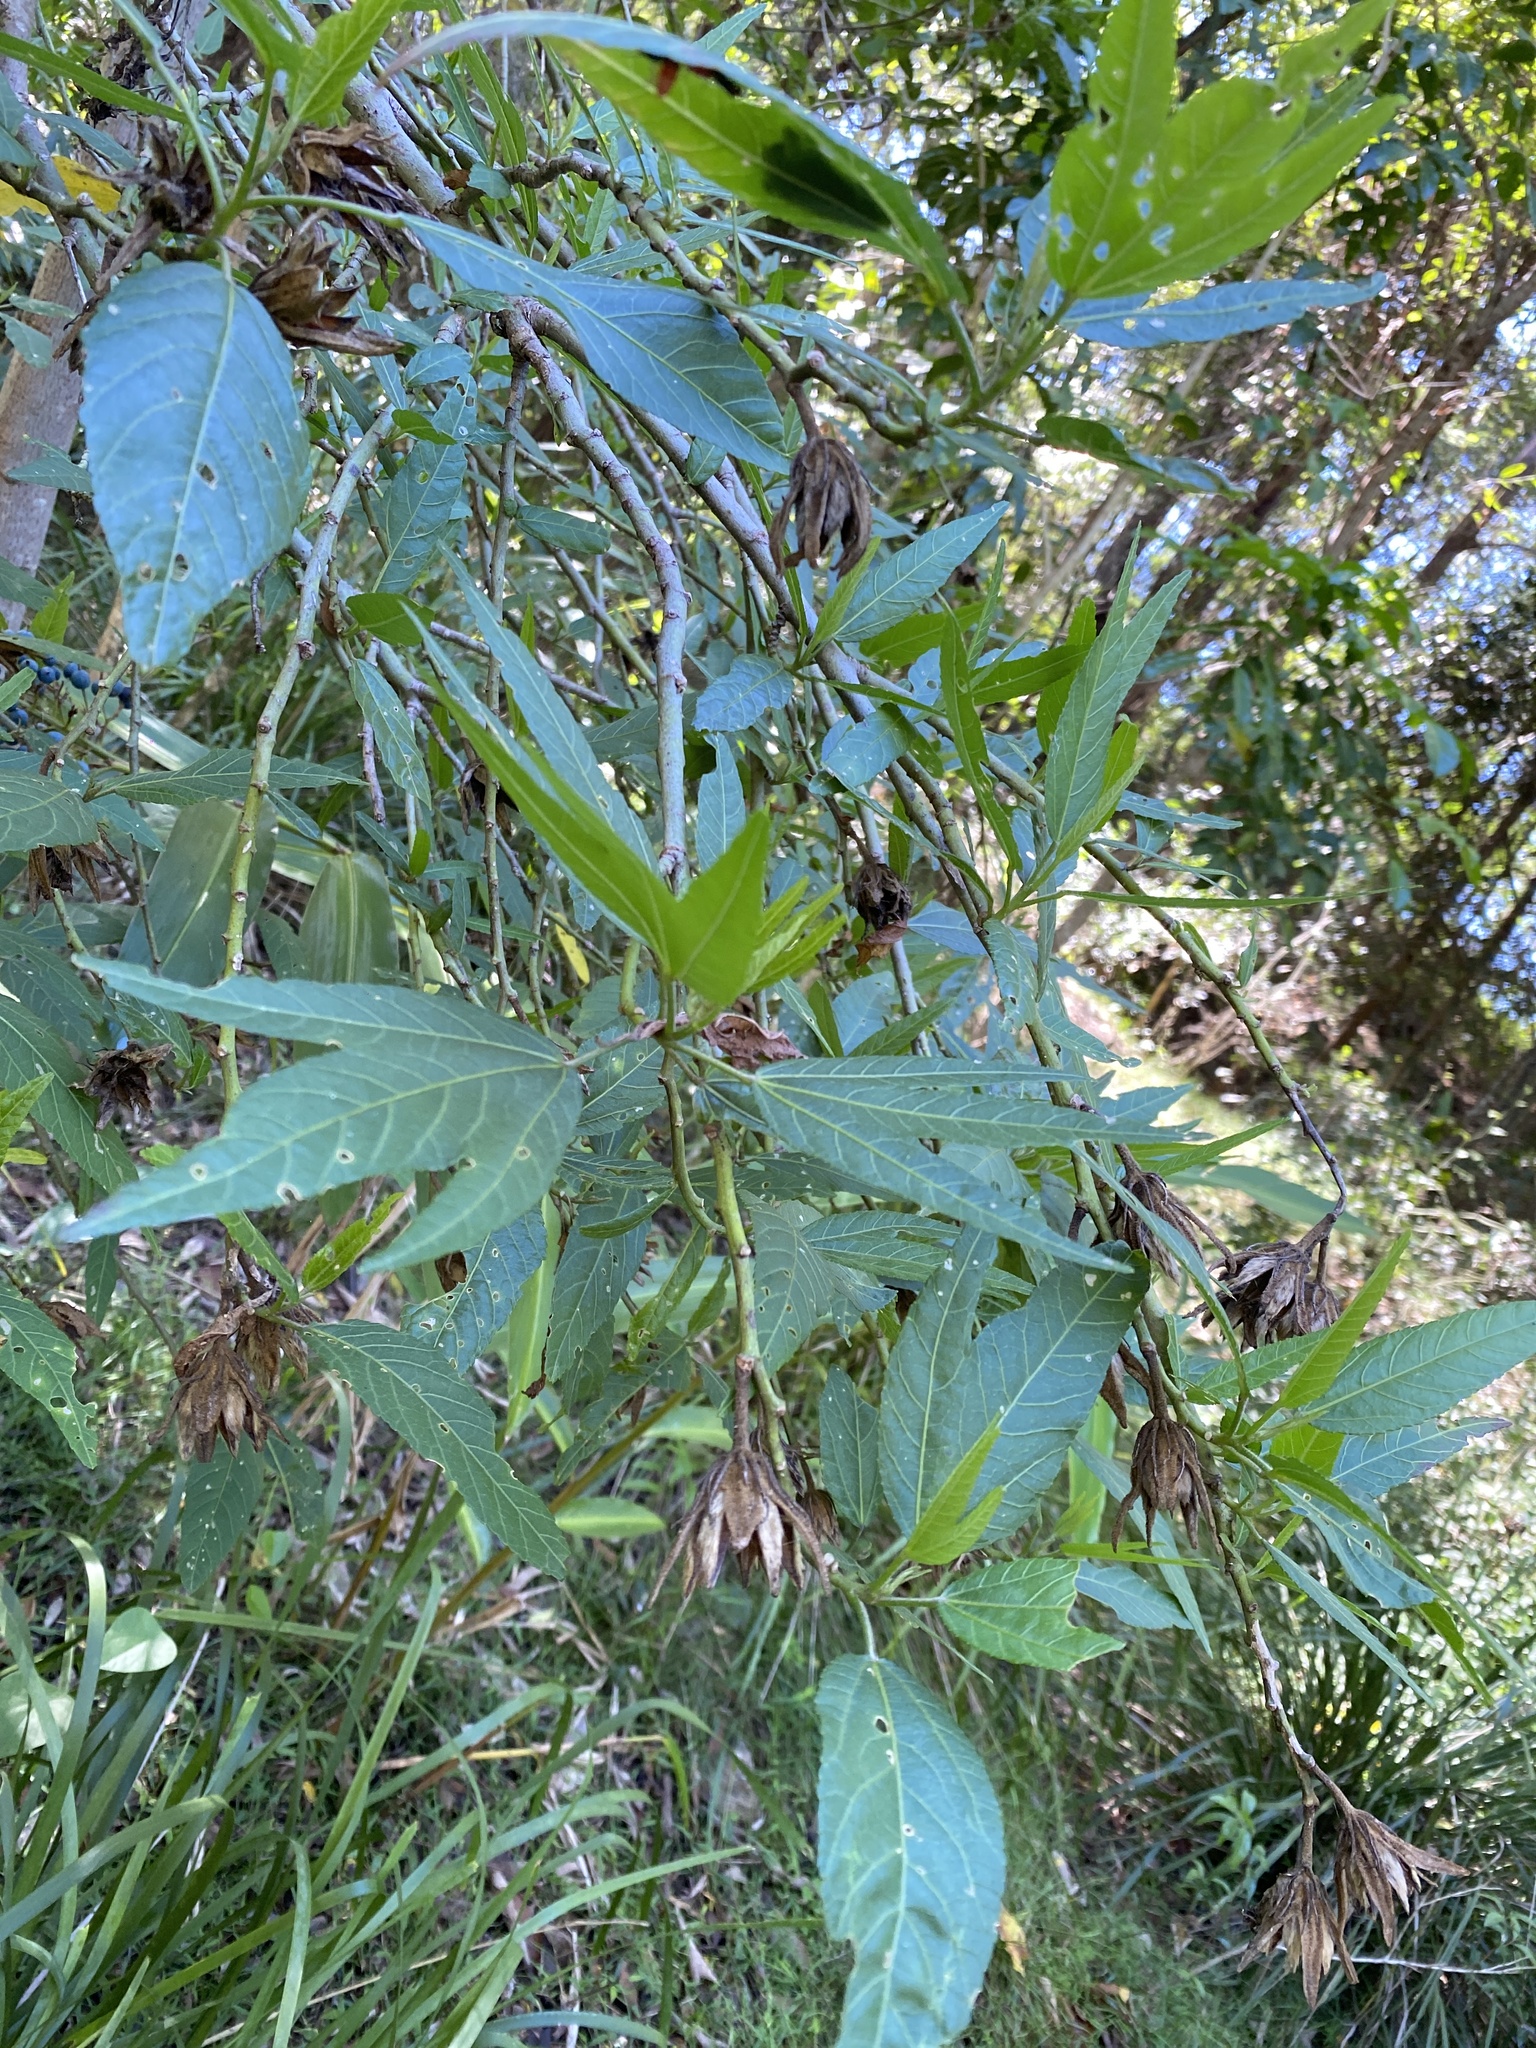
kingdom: Plantae
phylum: Tracheophyta
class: Magnoliopsida
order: Malvales
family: Malvaceae
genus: Hibiscus
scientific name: Hibiscus heterophyllus
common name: Queensland-sorrel
